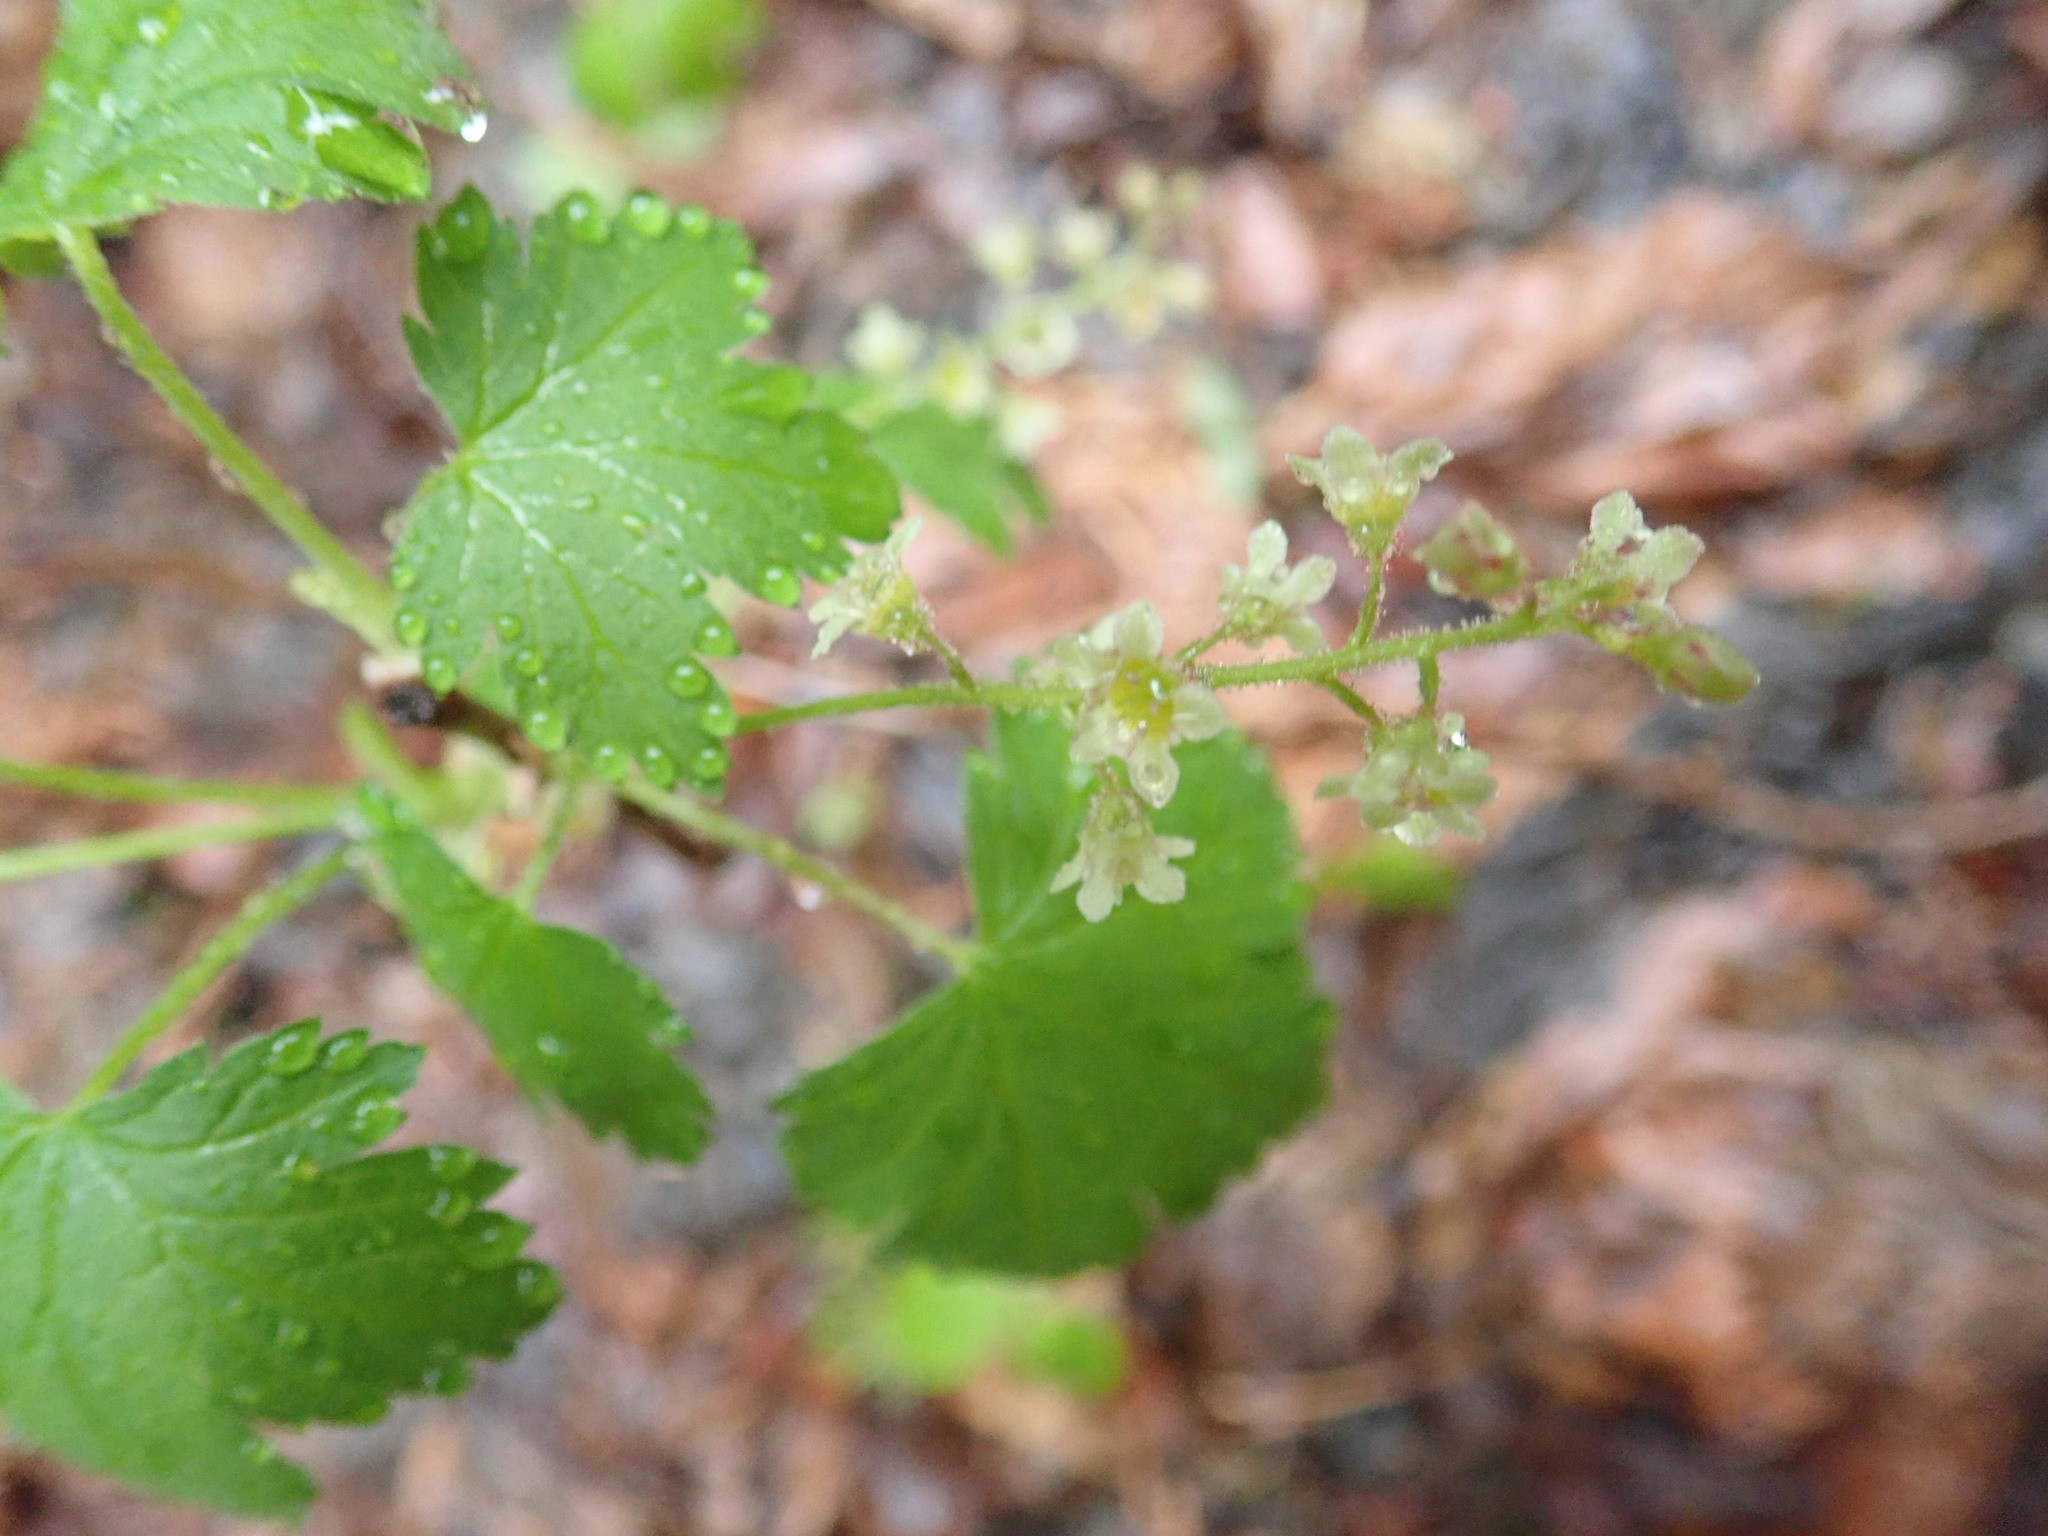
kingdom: Plantae
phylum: Tracheophyta
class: Magnoliopsida
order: Saxifragales
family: Grossulariaceae
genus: Ribes
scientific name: Ribes glandulosum
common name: Skunk currant
